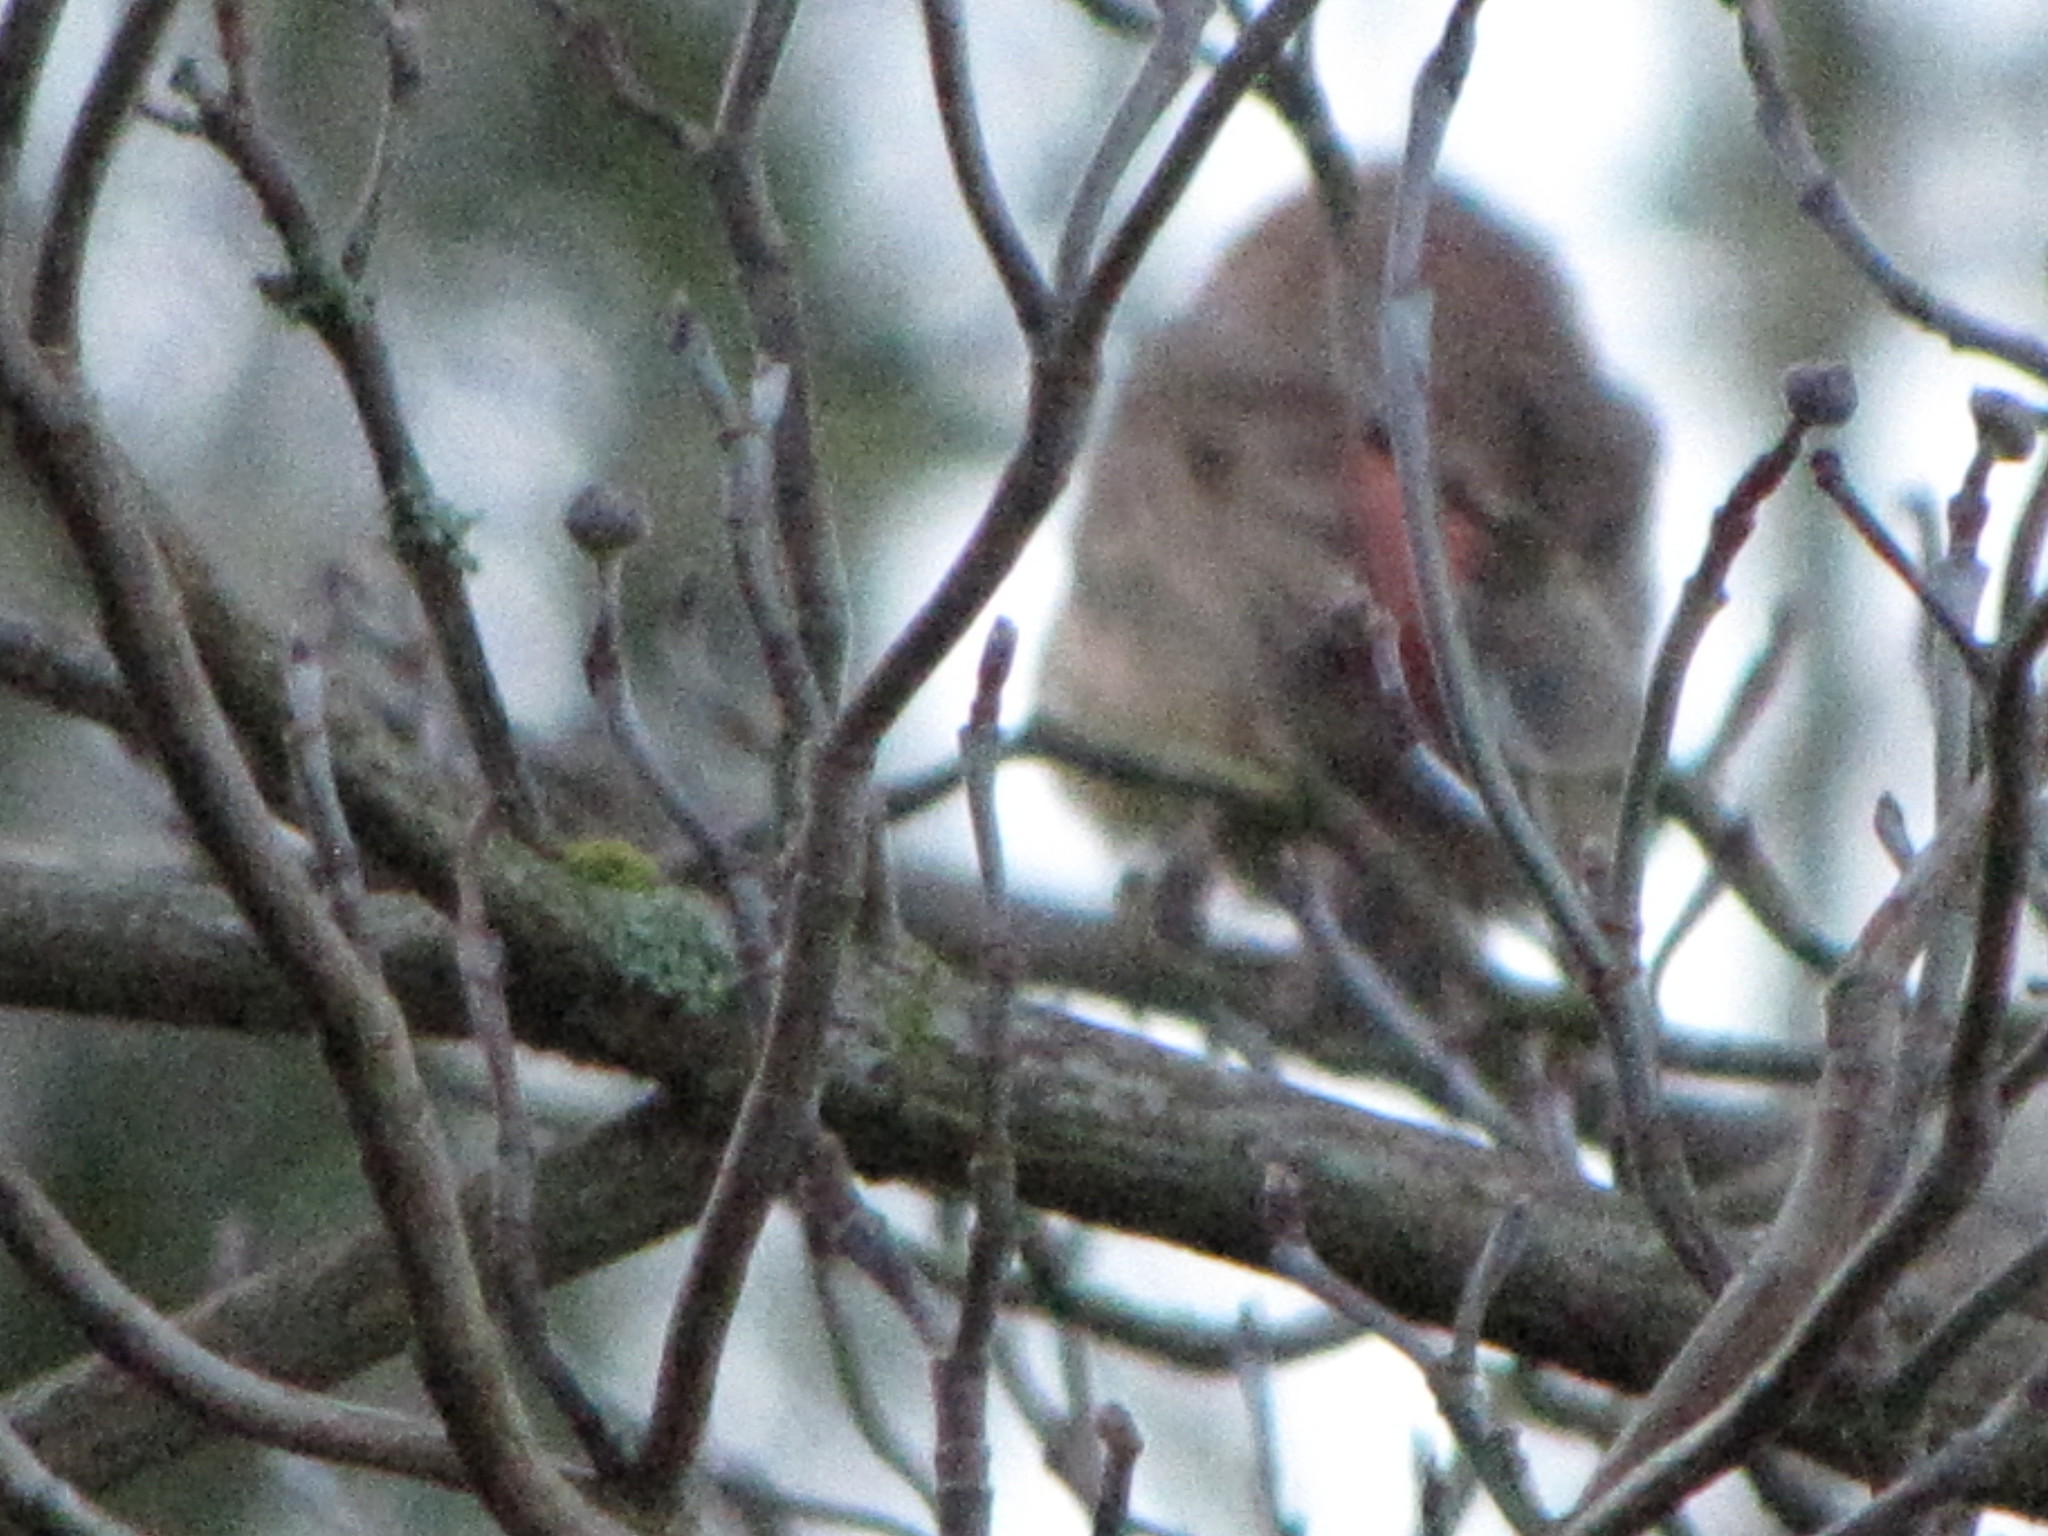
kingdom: Animalia
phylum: Chordata
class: Aves
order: Passeriformes
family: Fringillidae
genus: Haemorhous
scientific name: Haemorhous mexicanus
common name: House finch
